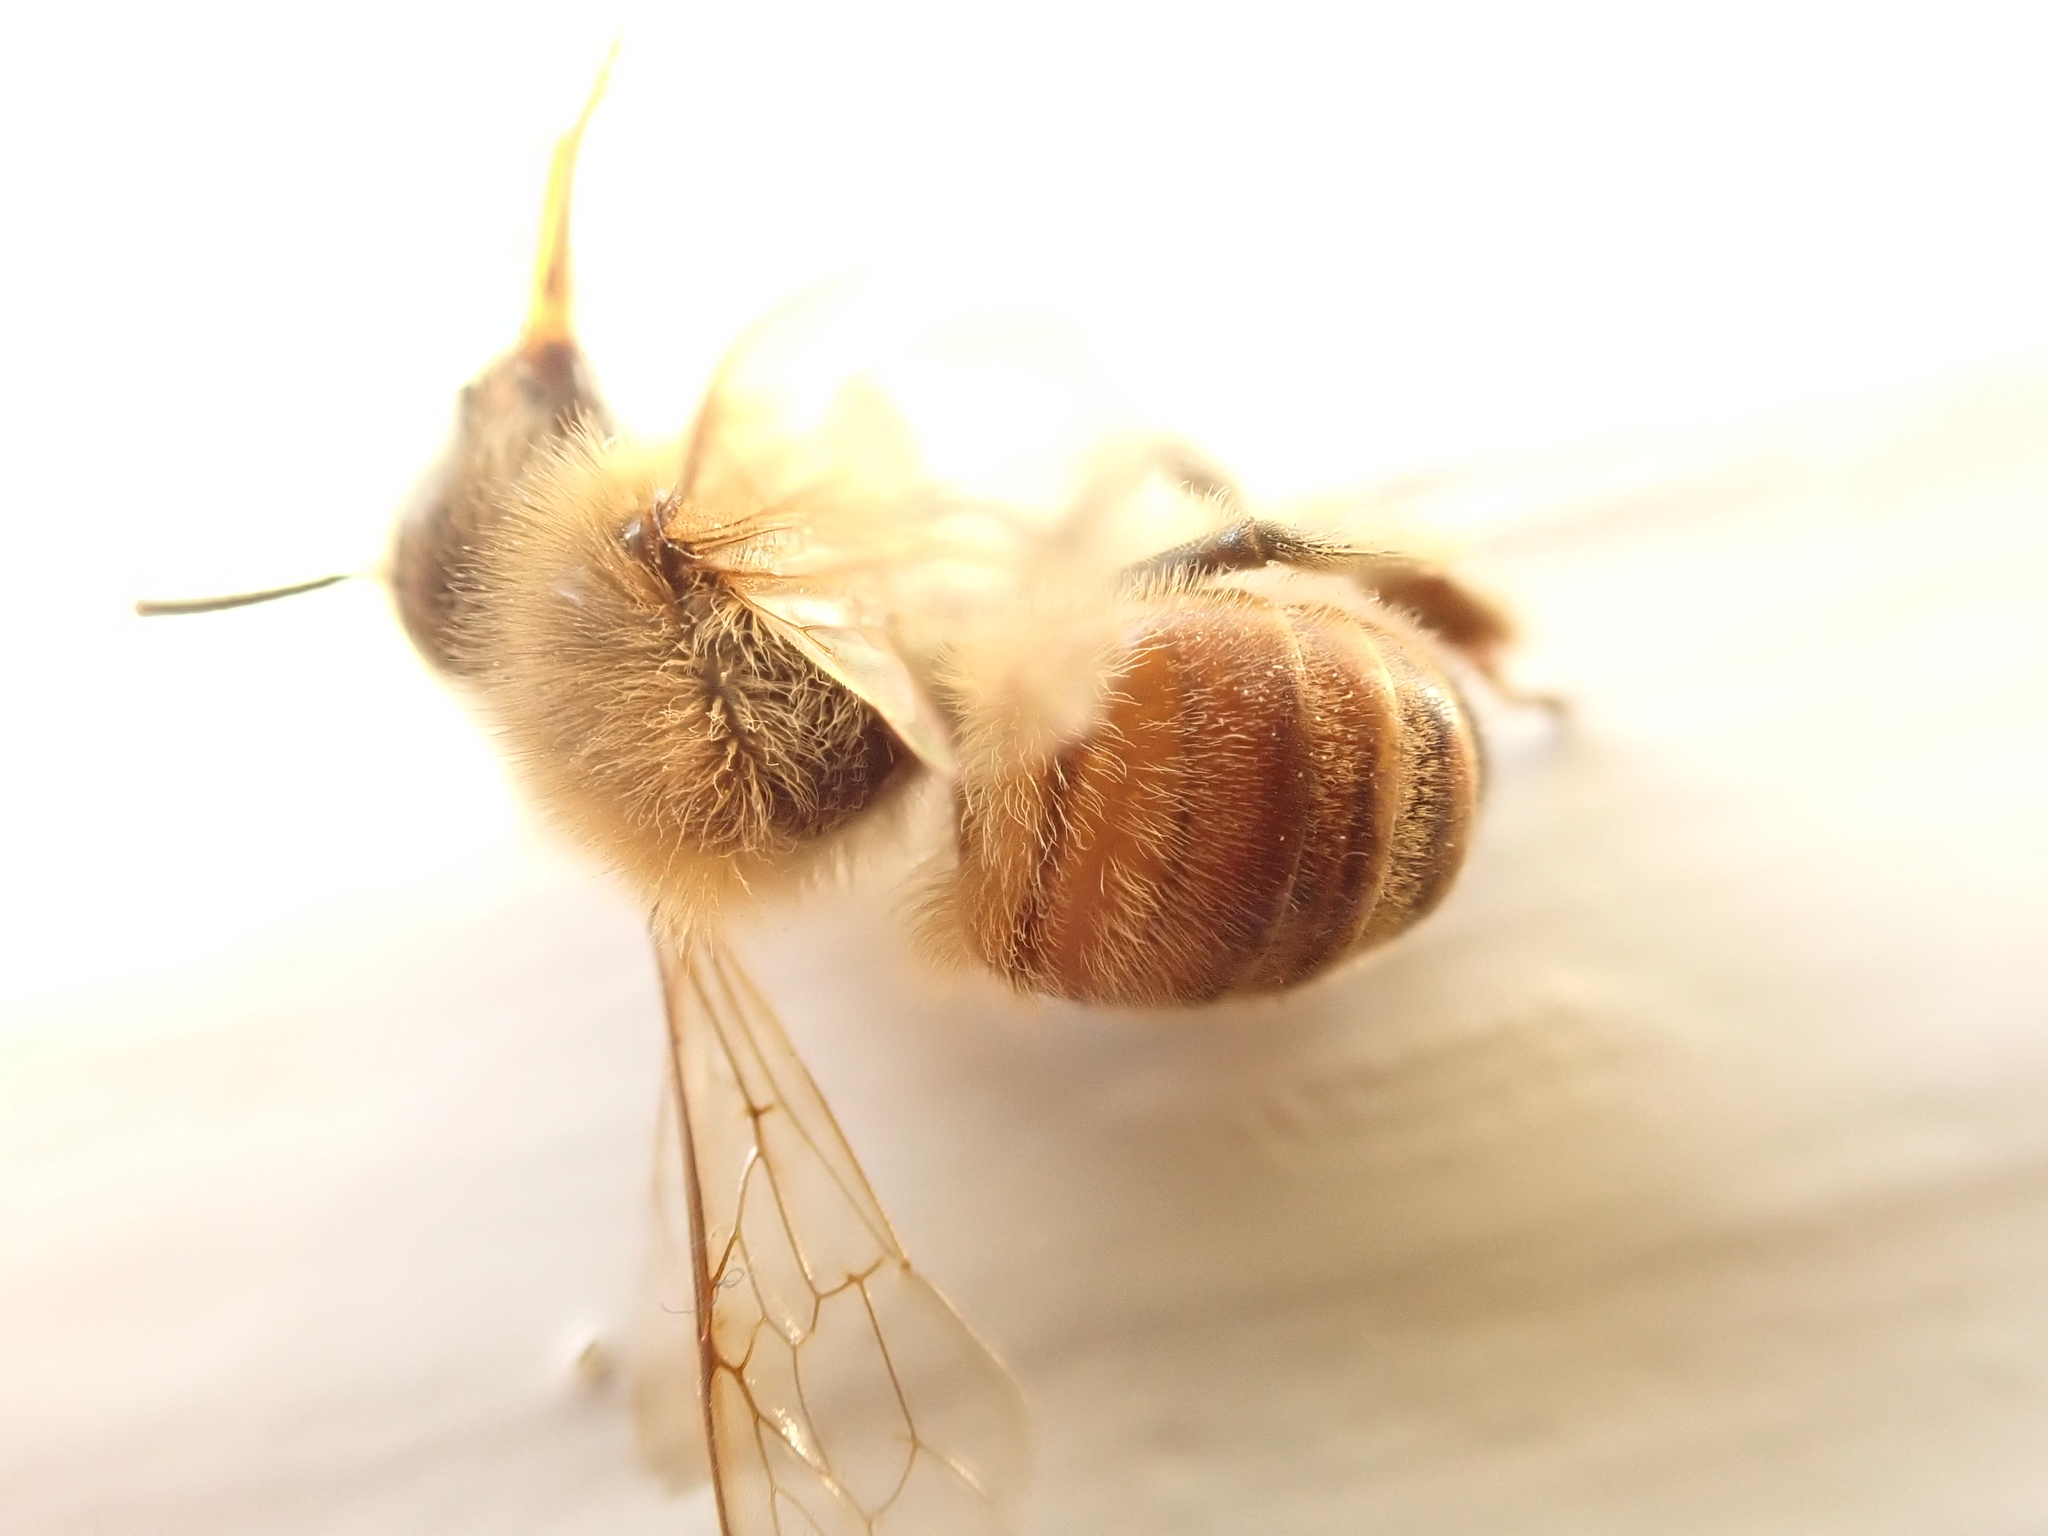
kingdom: Animalia
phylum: Arthropoda
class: Insecta
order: Hymenoptera
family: Apidae
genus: Apis
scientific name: Apis mellifera
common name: Honey bee
